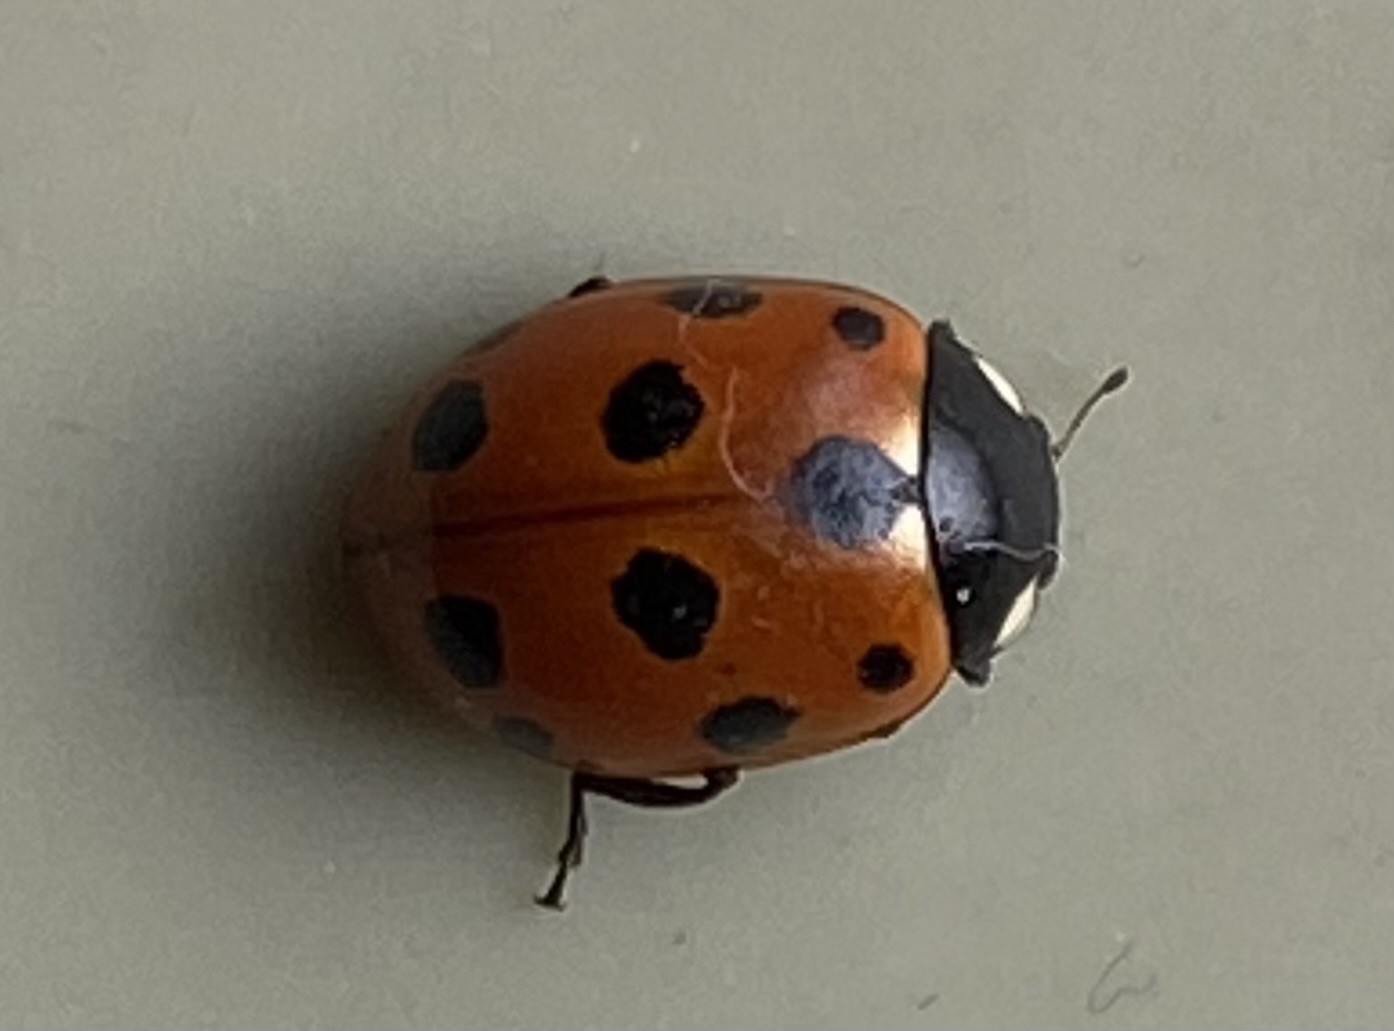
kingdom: Animalia
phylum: Arthropoda
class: Insecta
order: Coleoptera
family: Coccinellidae
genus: Coccinella
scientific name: Coccinella undecimpunctata
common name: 11-spot ladybird
